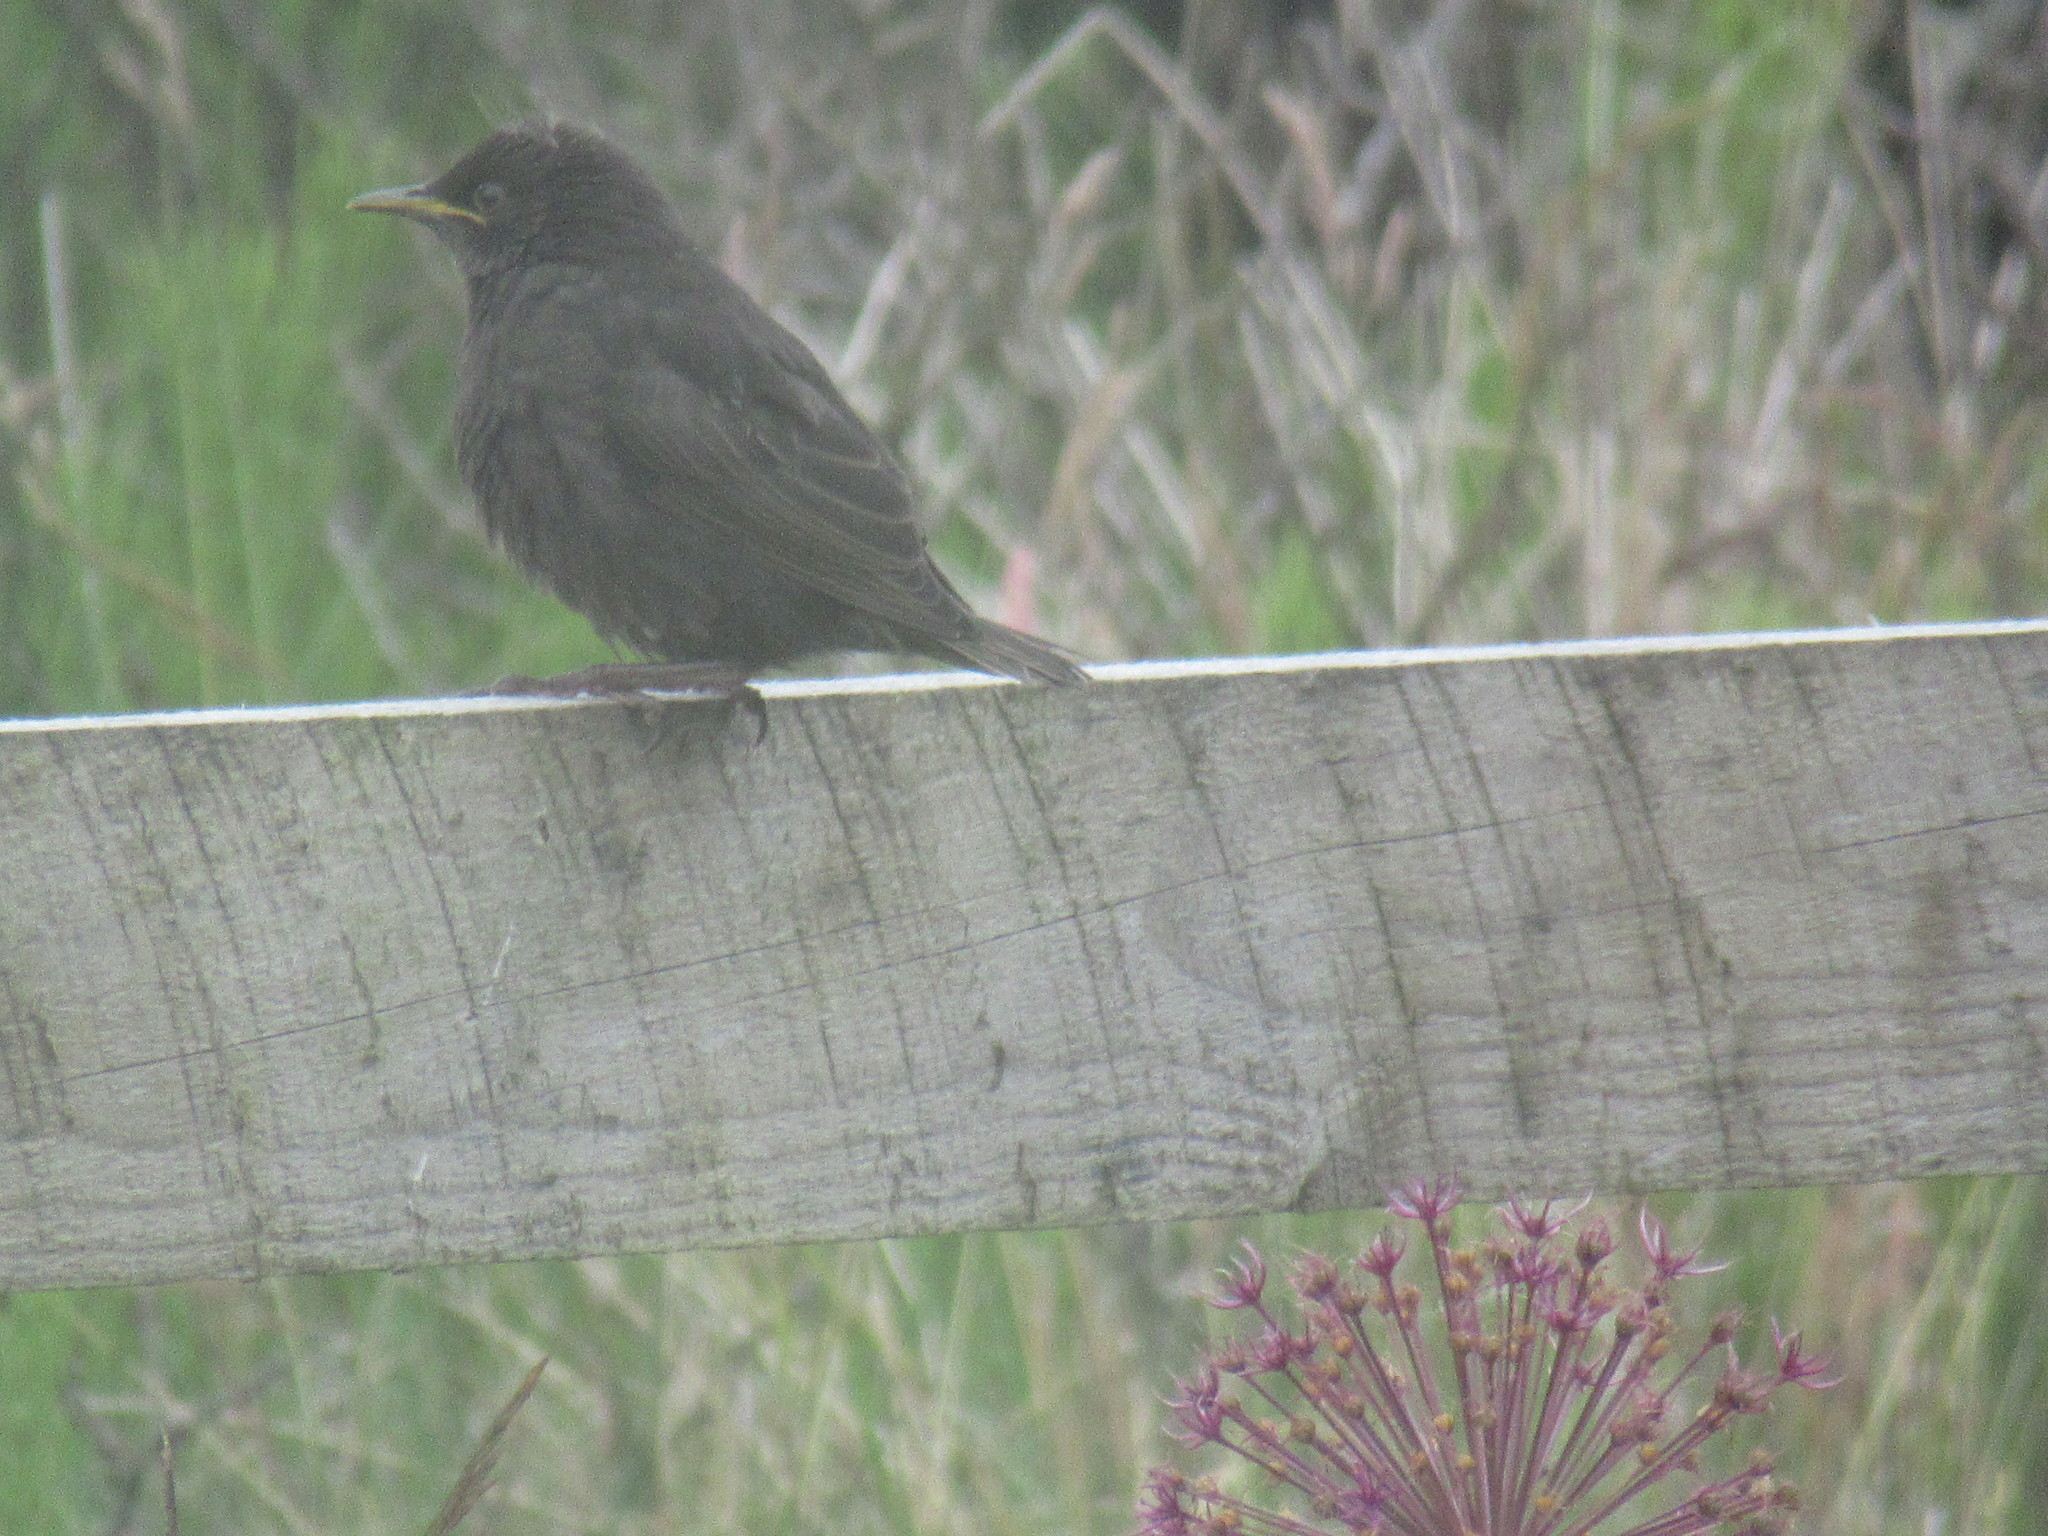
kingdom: Animalia
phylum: Chordata
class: Aves
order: Passeriformes
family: Turdidae
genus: Turdus
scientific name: Turdus merula
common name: Common blackbird
